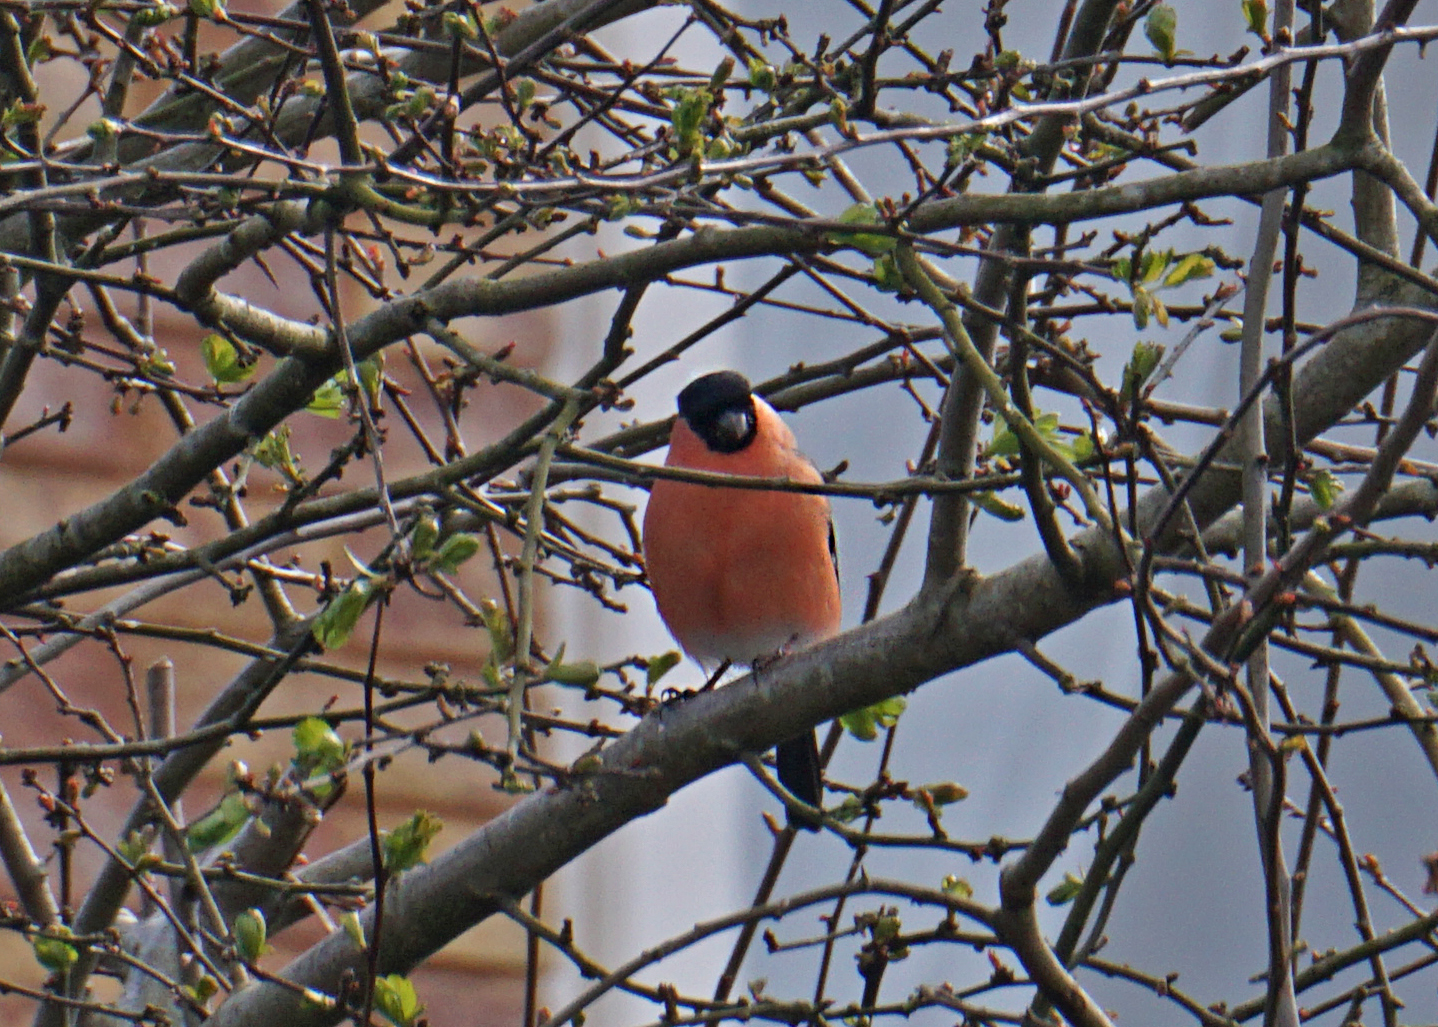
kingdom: Animalia
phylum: Chordata
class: Aves
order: Passeriformes
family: Fringillidae
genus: Pyrrhula
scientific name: Pyrrhula pyrrhula
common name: Eurasian bullfinch
